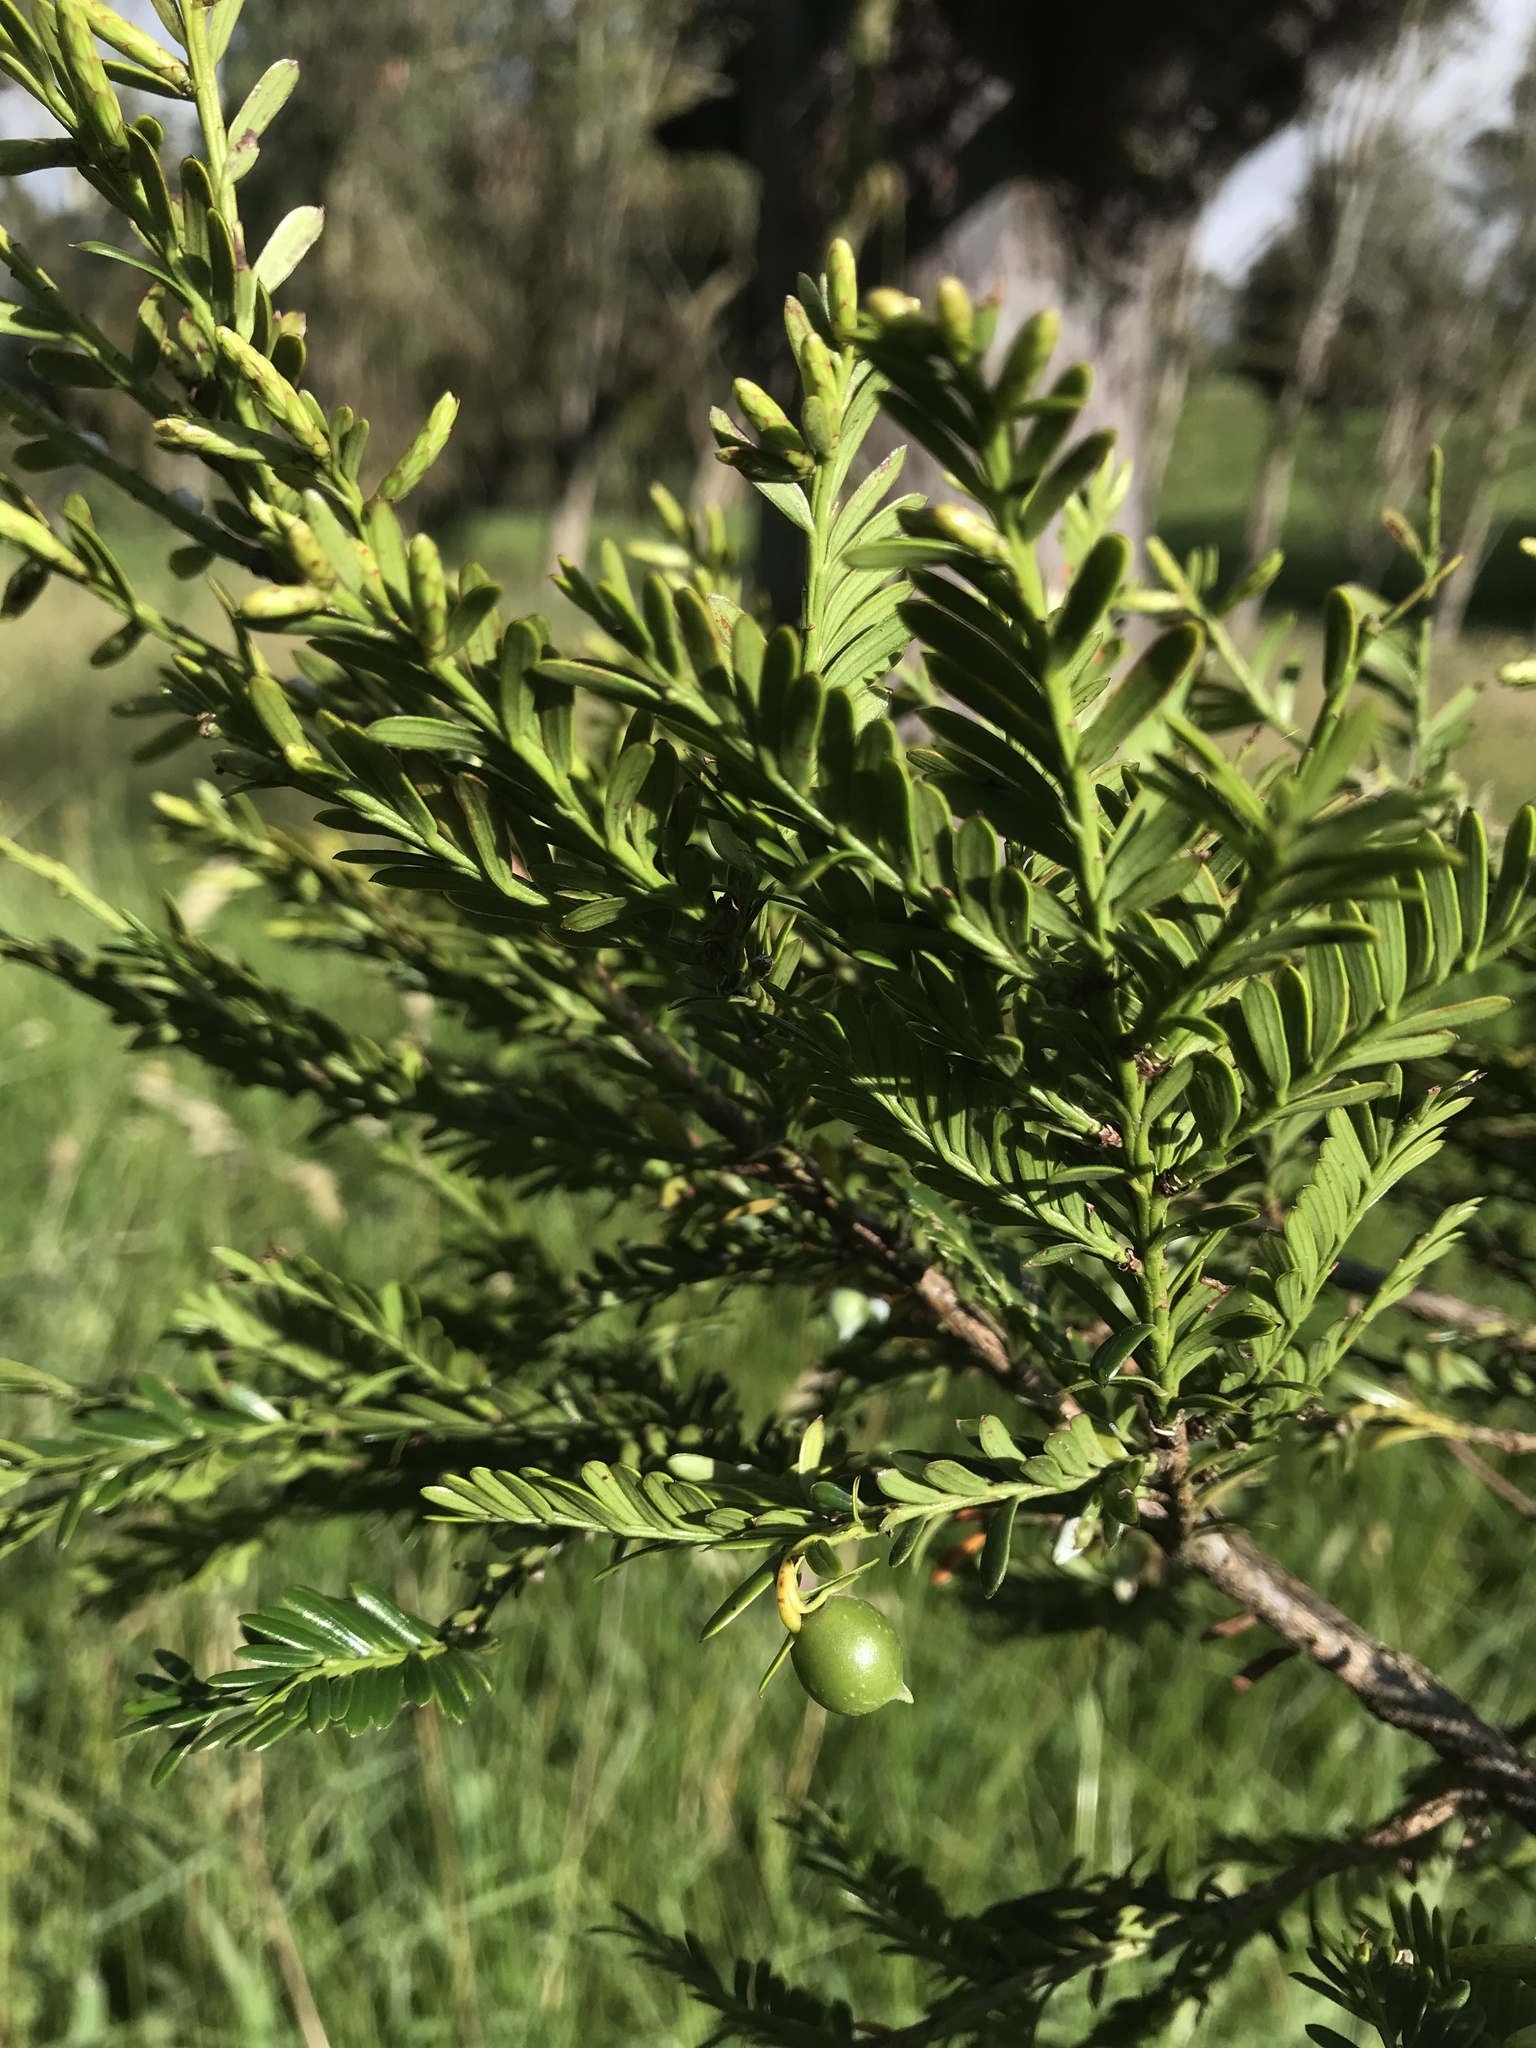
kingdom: Plantae
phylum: Tracheophyta
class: Pinopsida
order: Pinales
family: Podocarpaceae
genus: Prumnopitys
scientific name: Prumnopitys montana
